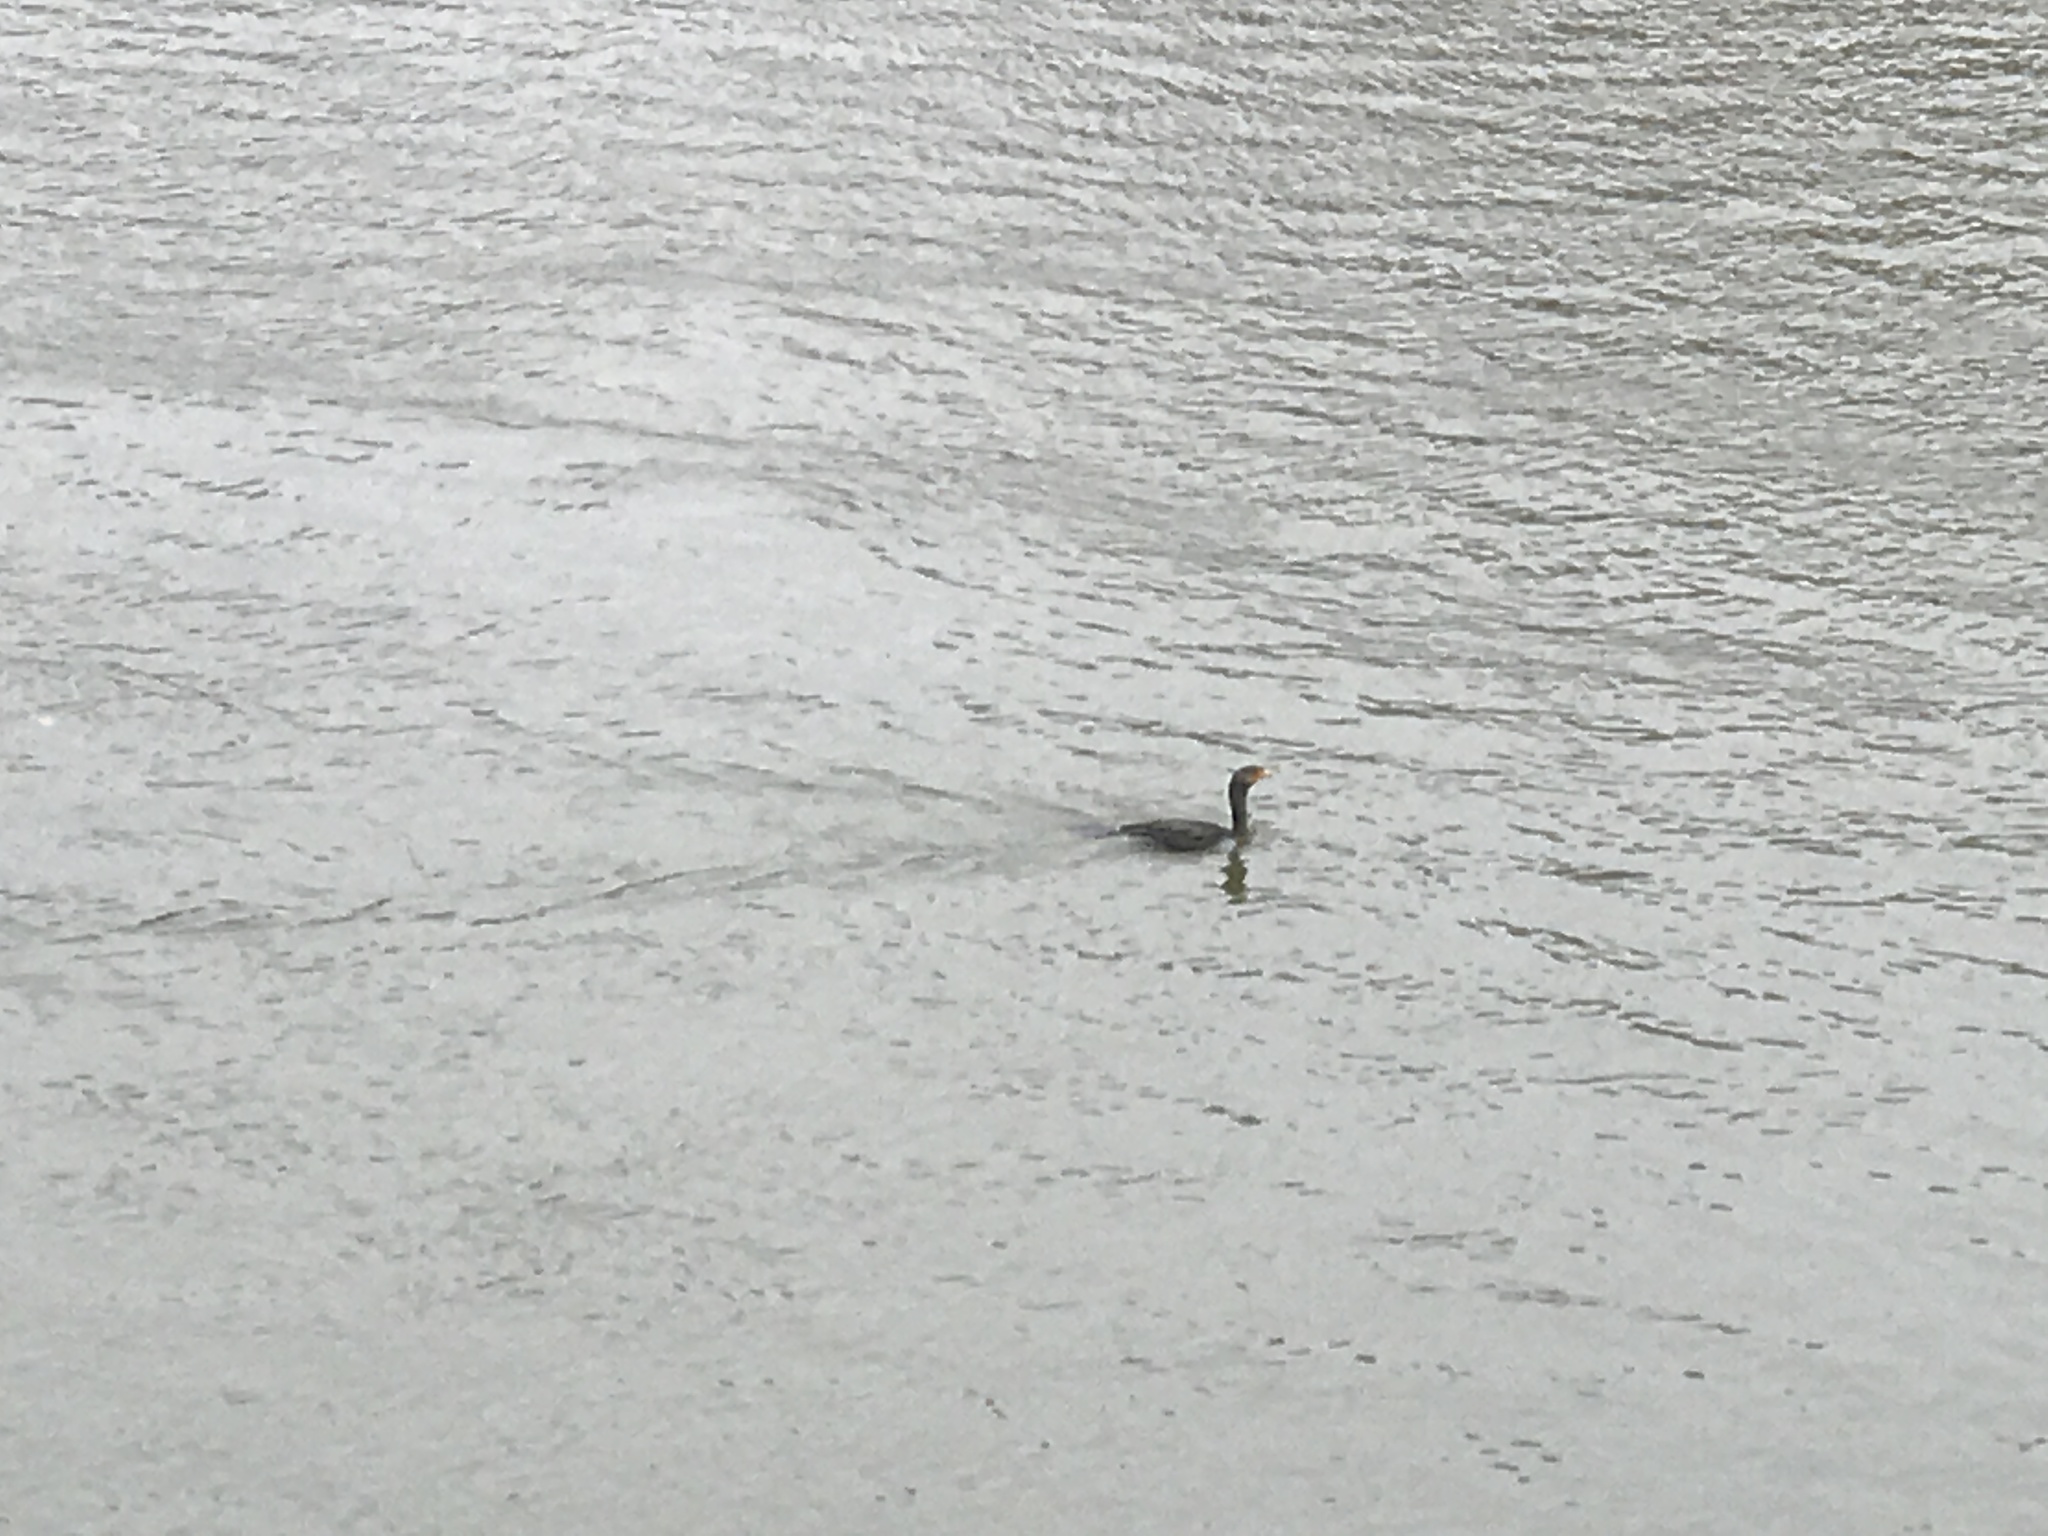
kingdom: Animalia
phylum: Chordata
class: Aves
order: Suliformes
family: Phalacrocoracidae
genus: Phalacrocorax
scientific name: Phalacrocorax auritus
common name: Double-crested cormorant
